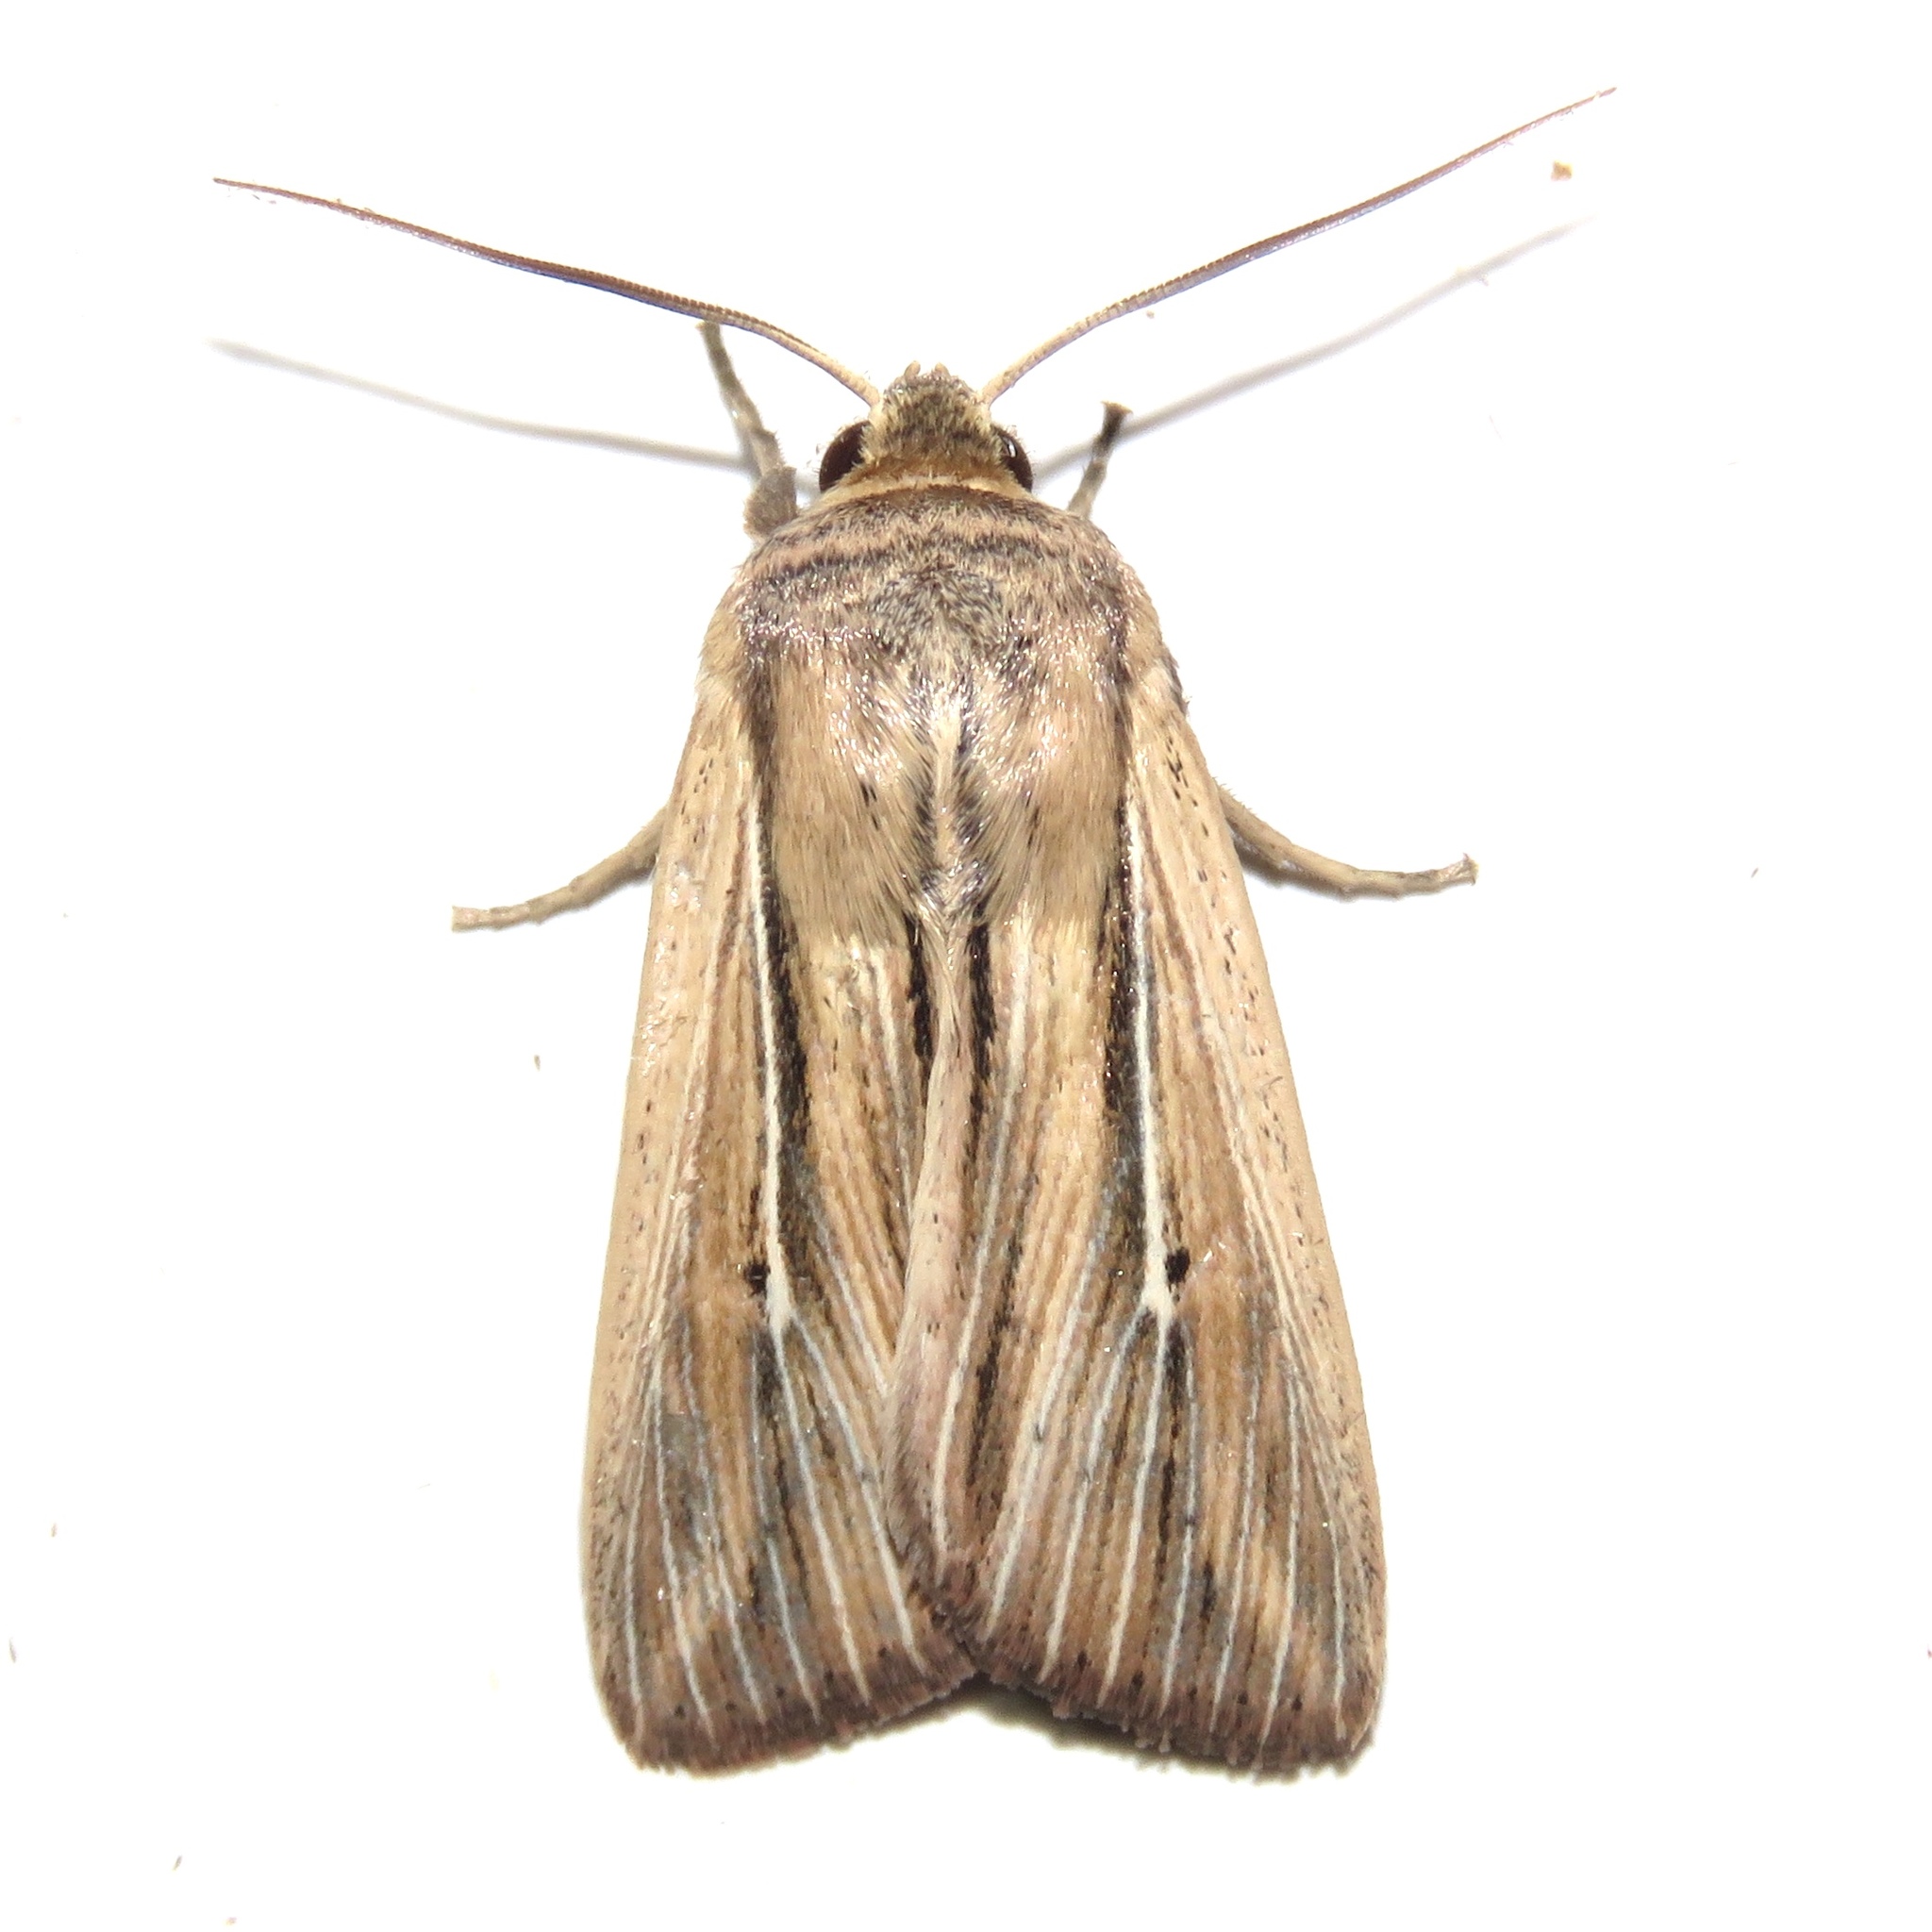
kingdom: Animalia
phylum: Arthropoda
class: Insecta
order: Lepidoptera
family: Noctuidae
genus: Leucania
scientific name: Leucania commoides
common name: Two-lined wainscot
